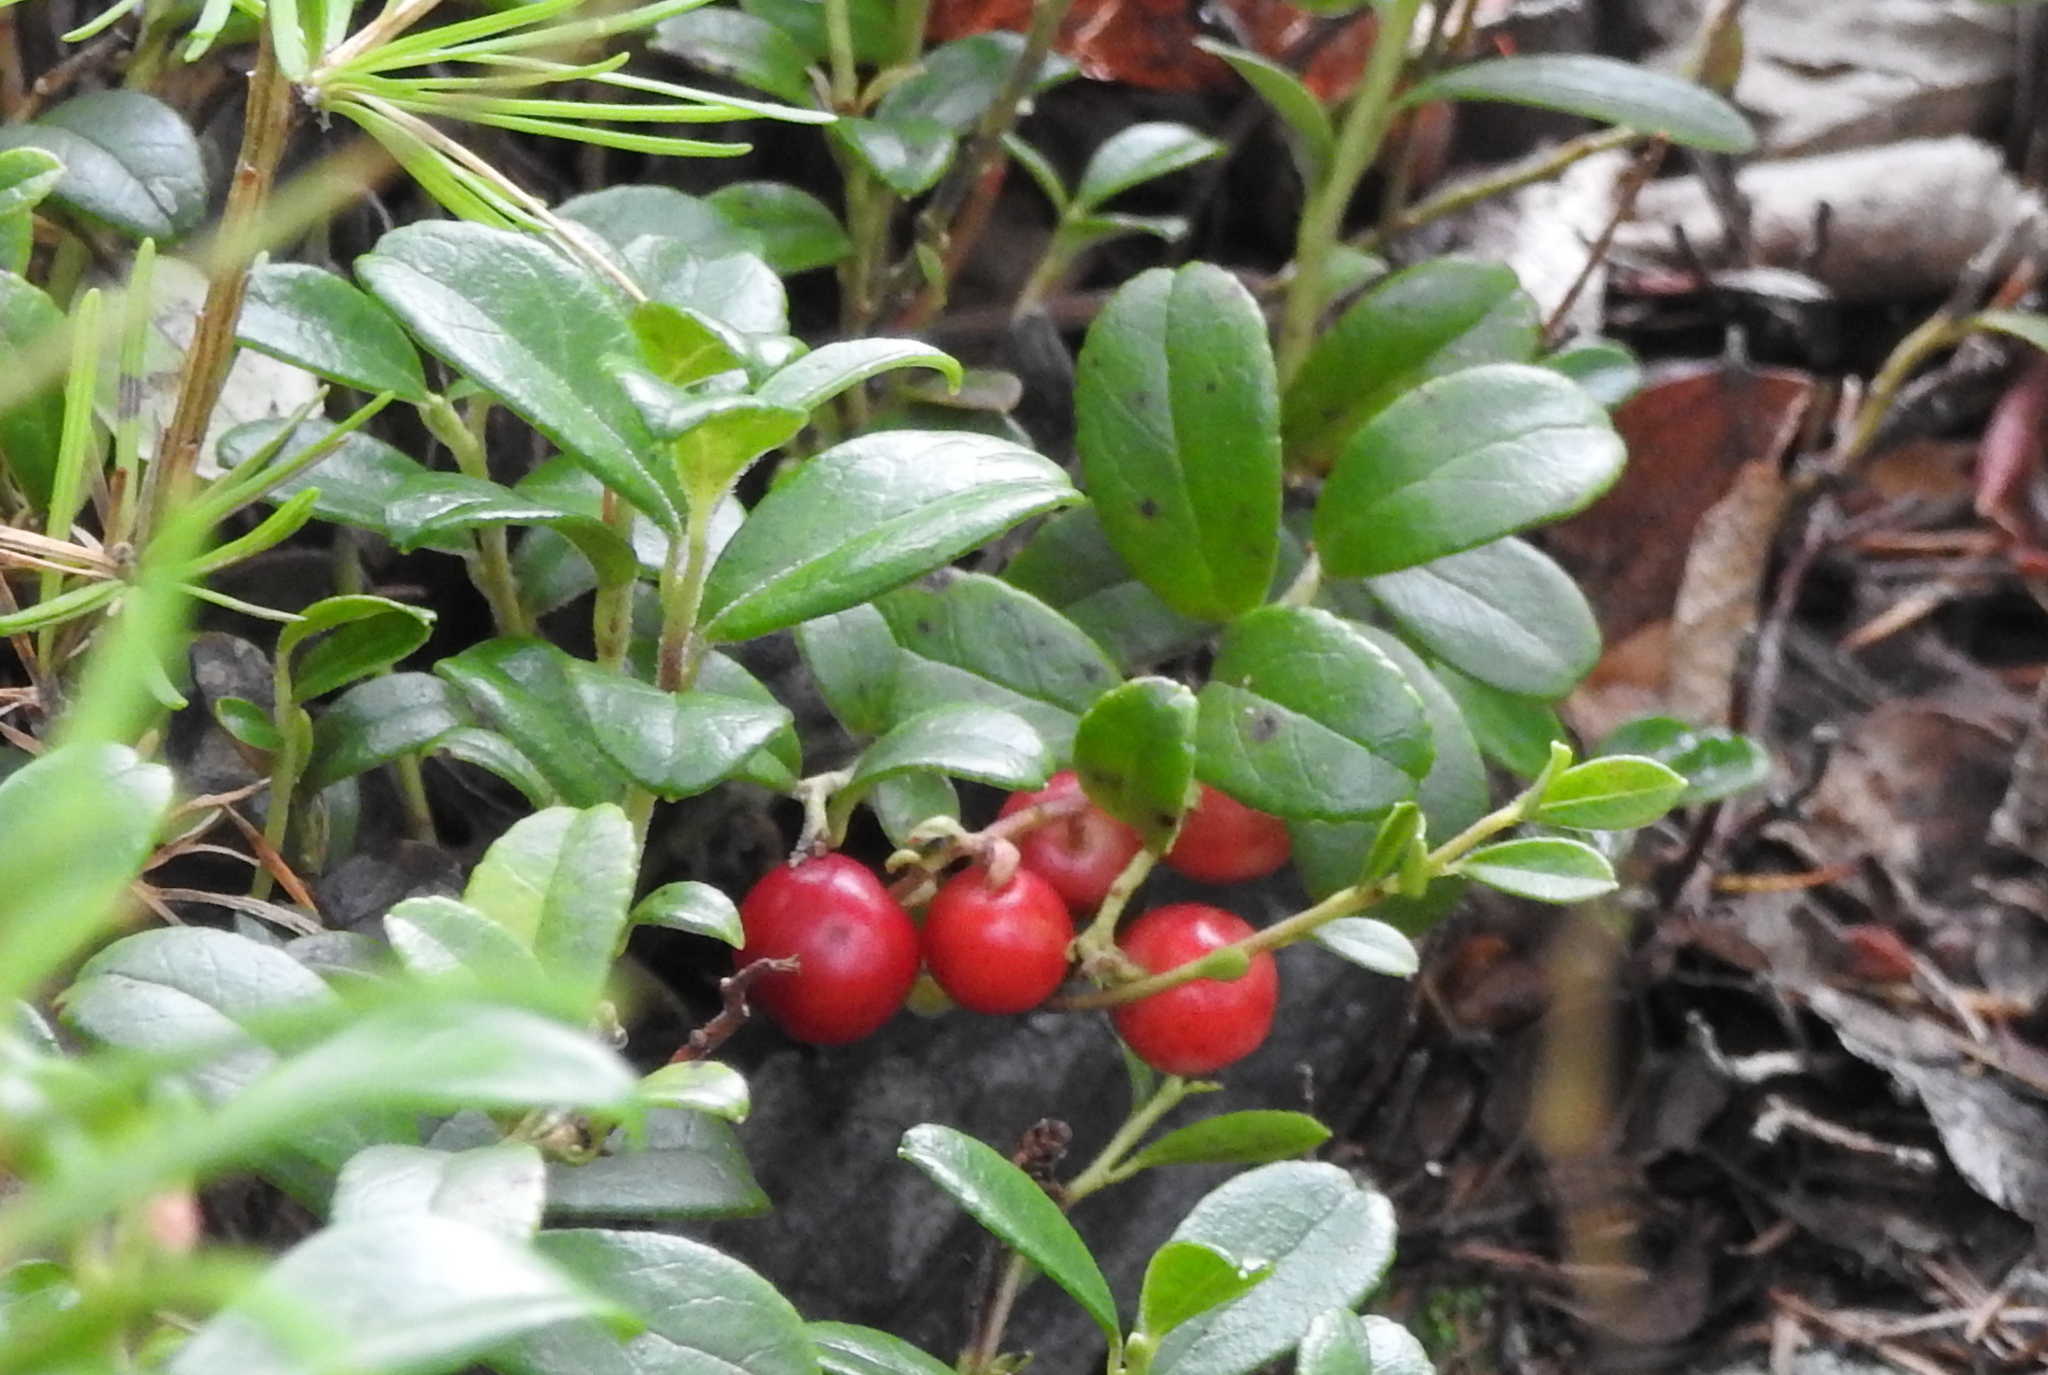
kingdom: Plantae
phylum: Tracheophyta
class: Magnoliopsida
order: Ericales
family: Ericaceae
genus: Vaccinium
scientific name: Vaccinium vitis-idaea
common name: Cowberry
